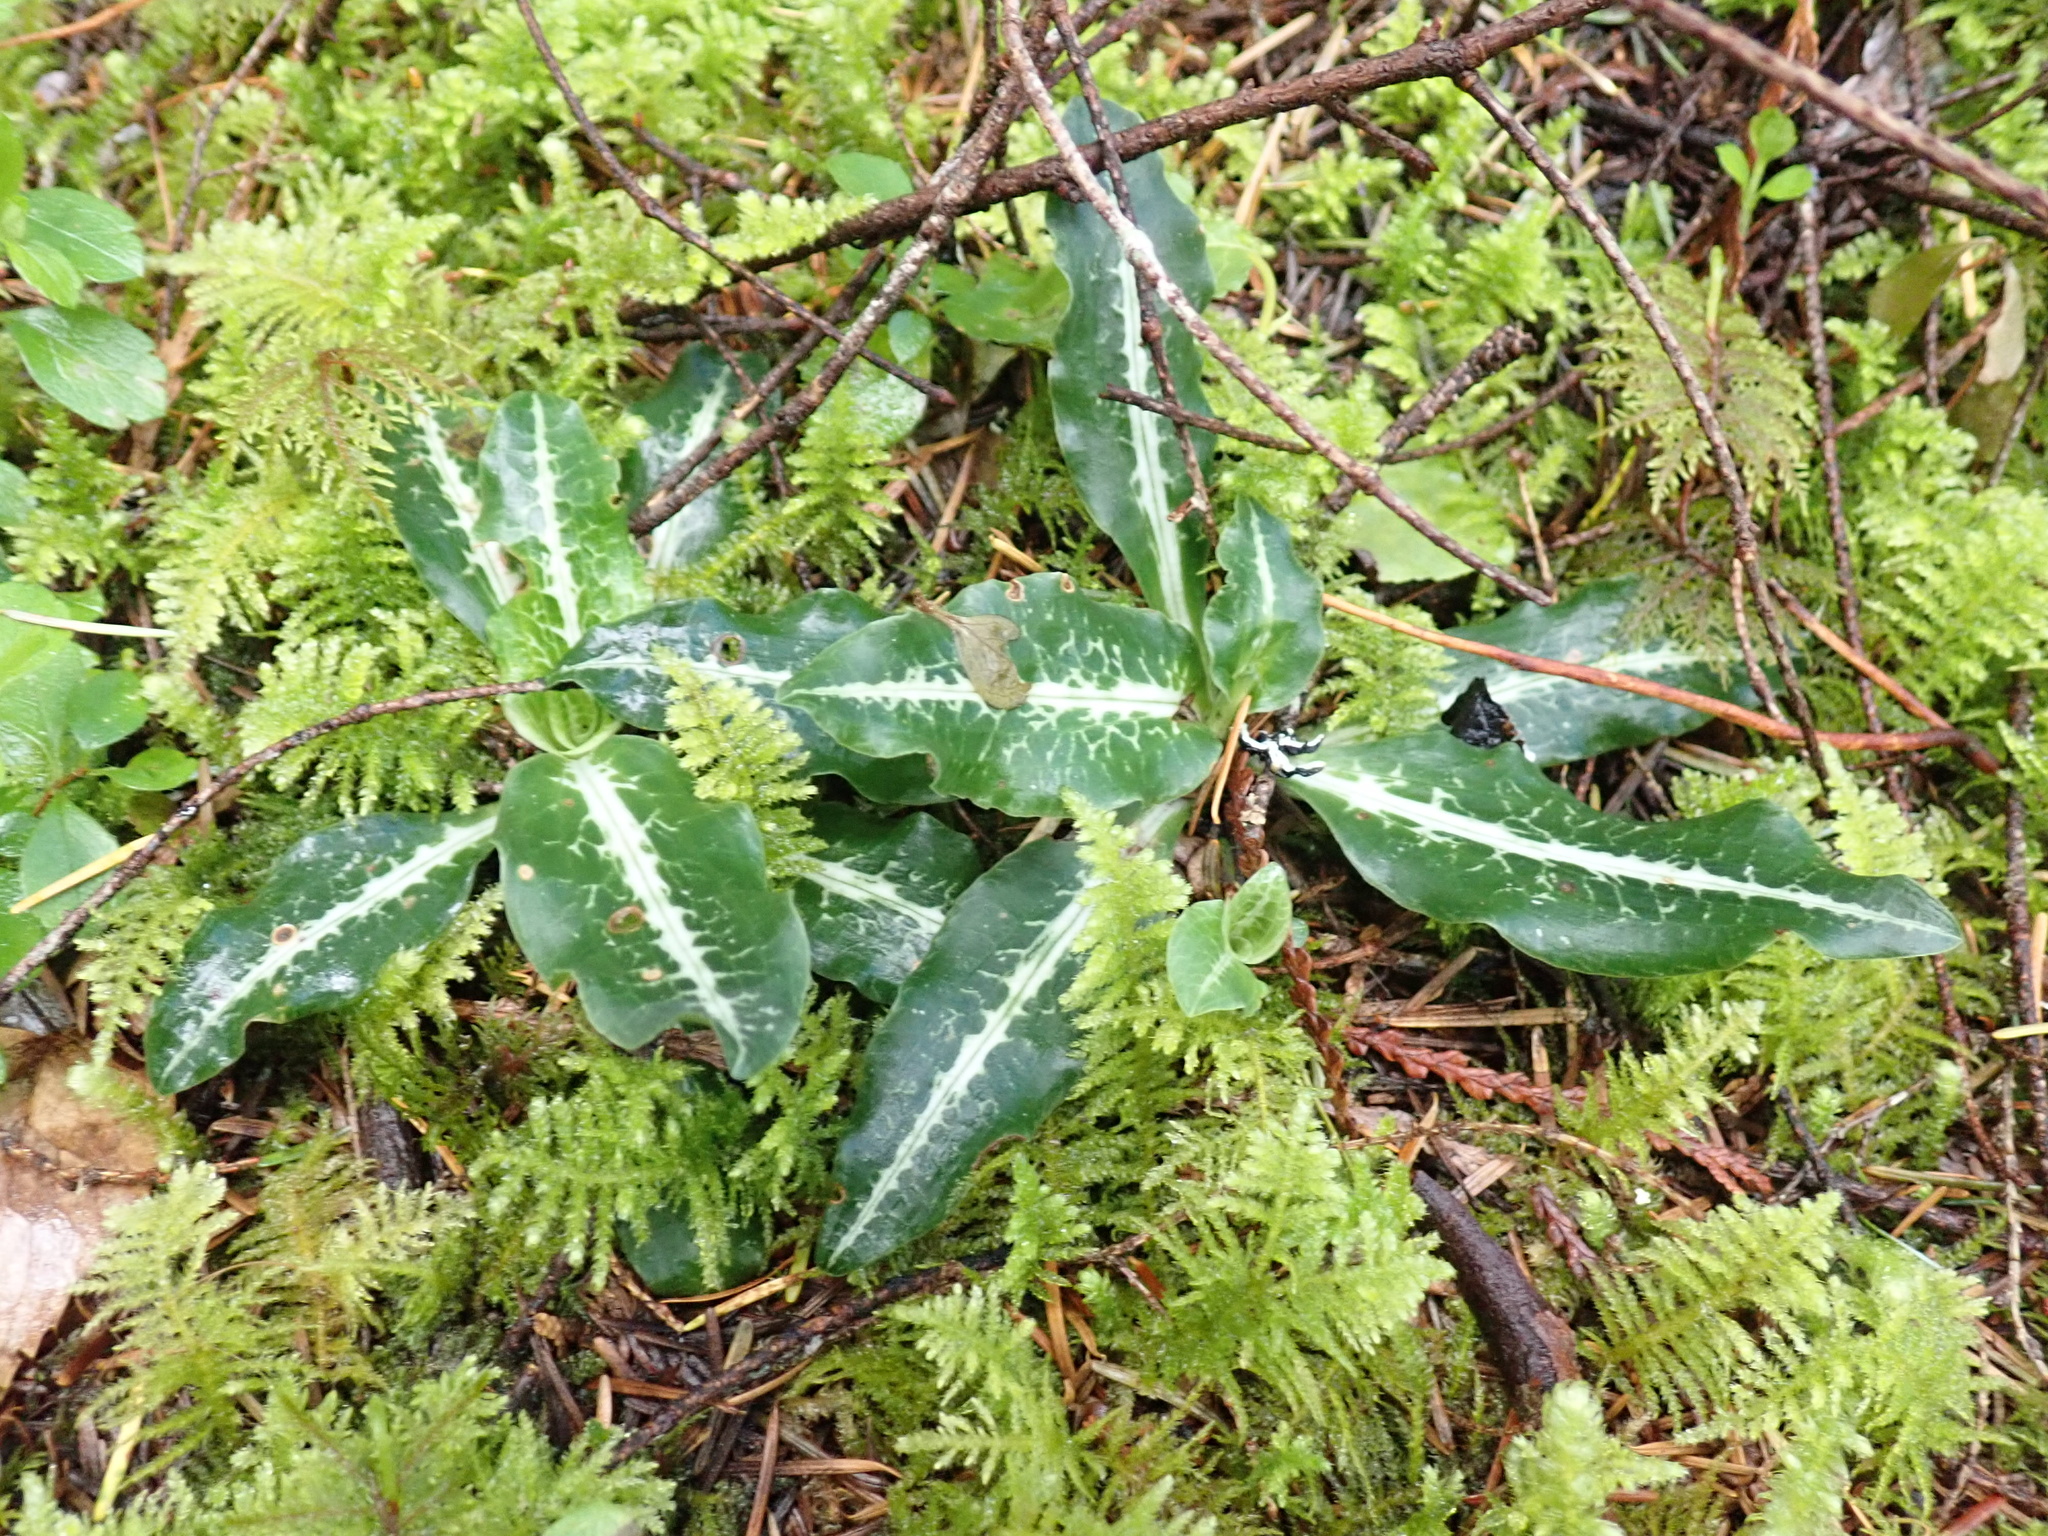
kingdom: Plantae
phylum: Tracheophyta
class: Liliopsida
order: Asparagales
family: Orchidaceae
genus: Goodyera
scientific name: Goodyera oblongifolia
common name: Giant rattlesnake-plantain
